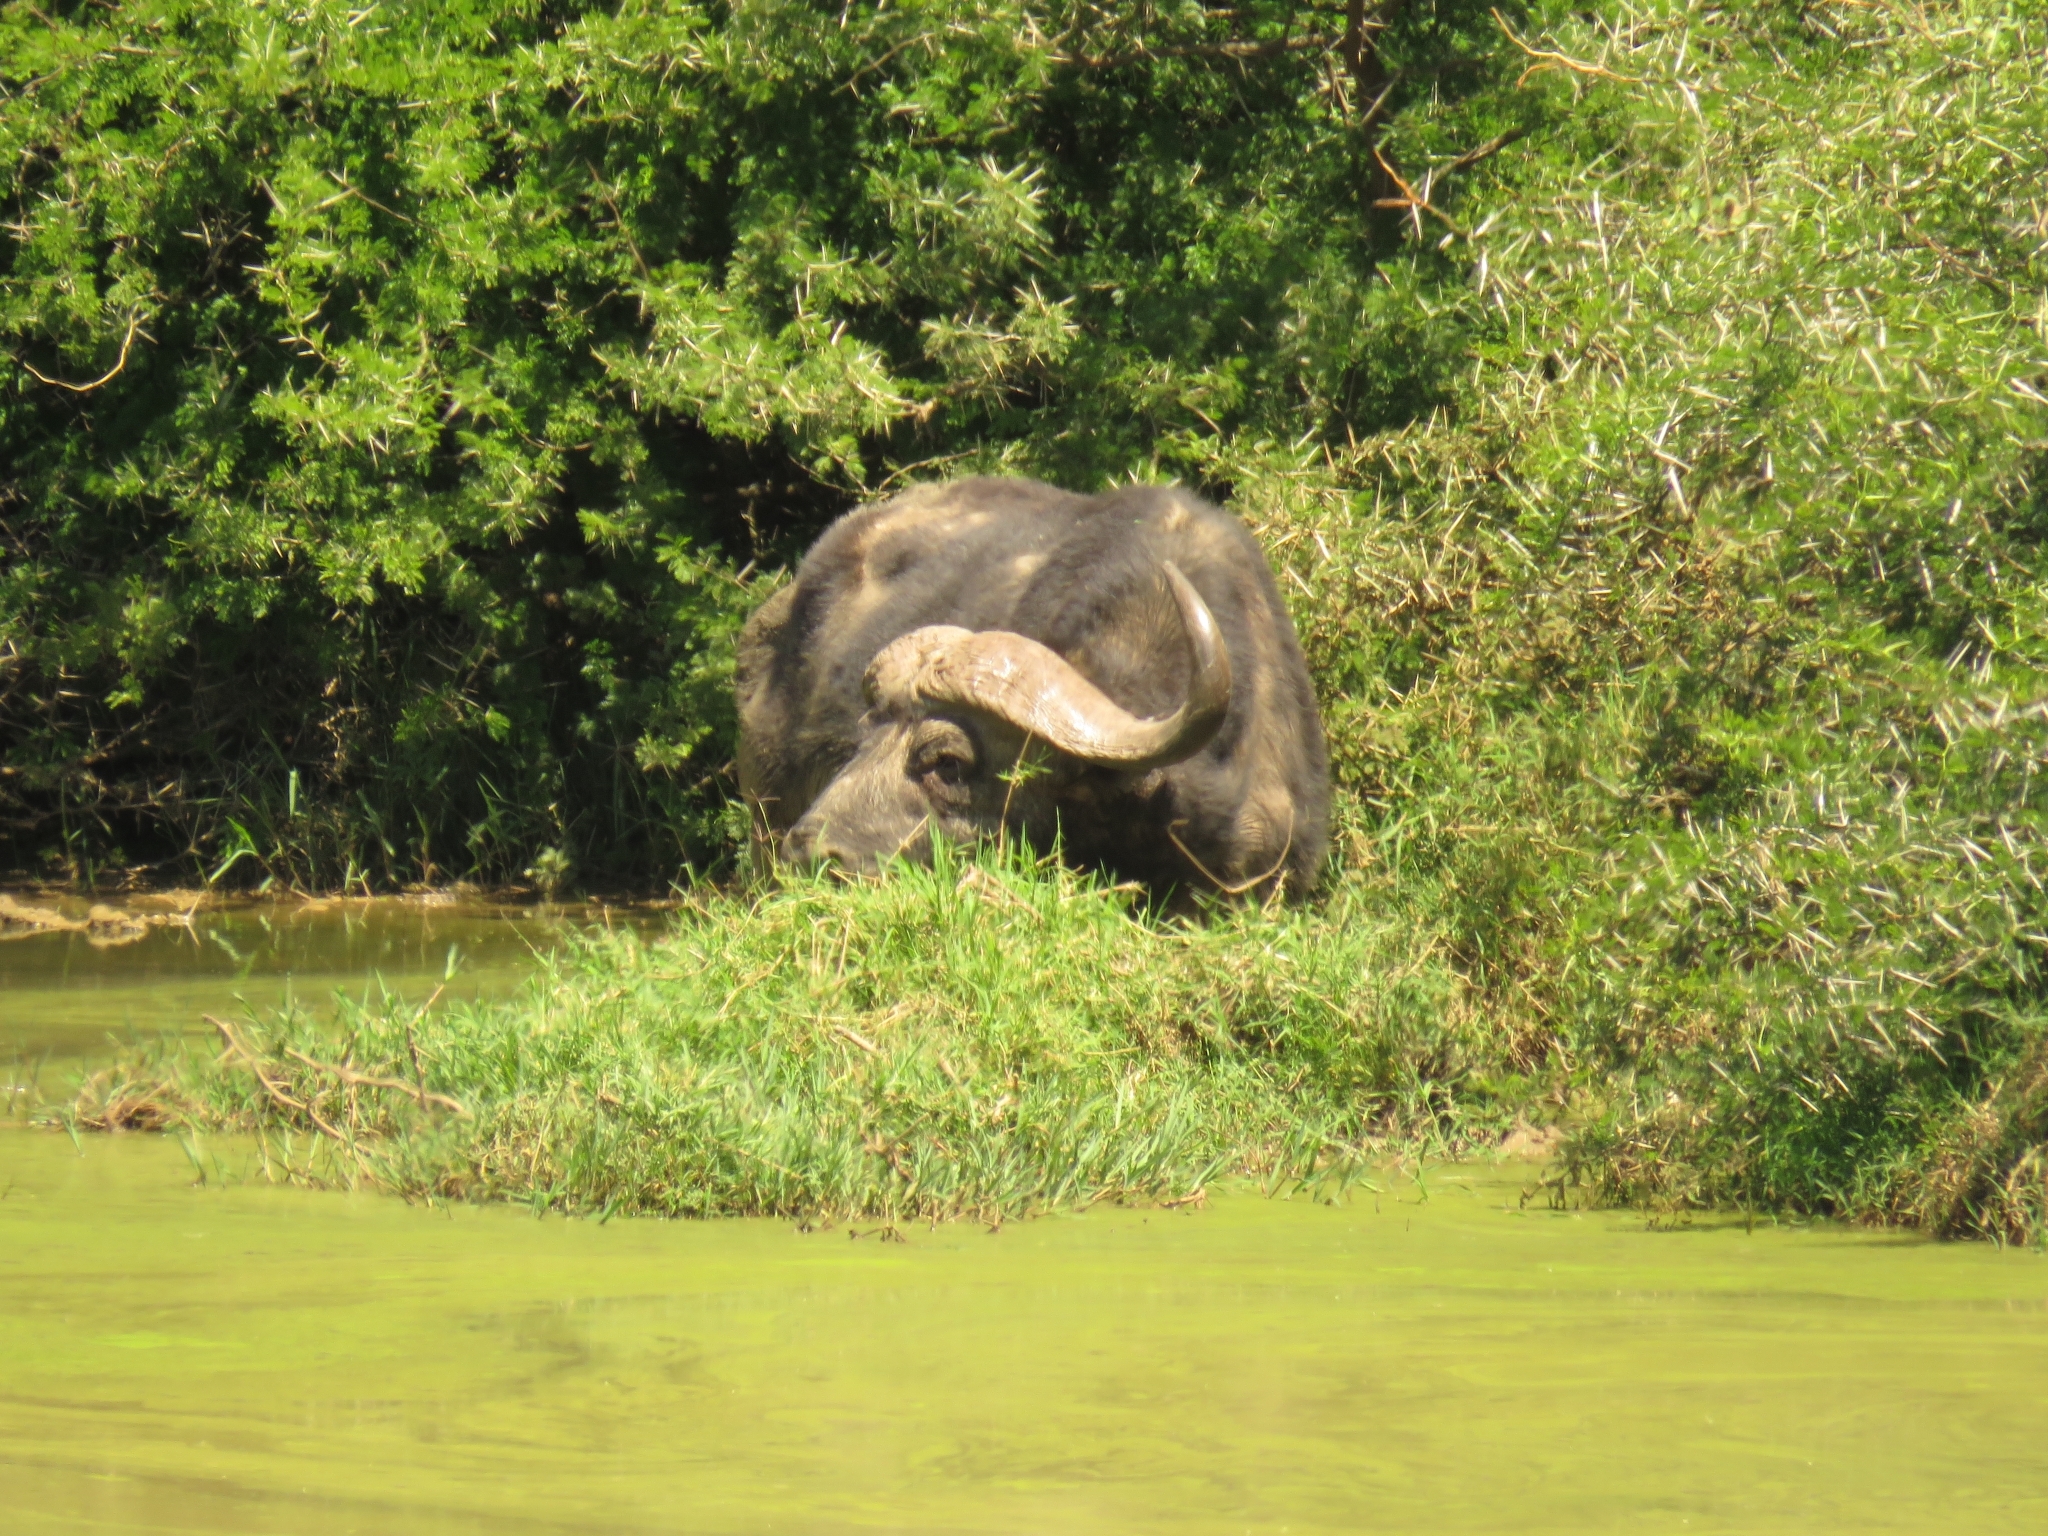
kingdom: Animalia
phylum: Chordata
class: Mammalia
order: Artiodactyla
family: Bovidae
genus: Syncerus
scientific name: Syncerus caffer
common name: African buffalo
